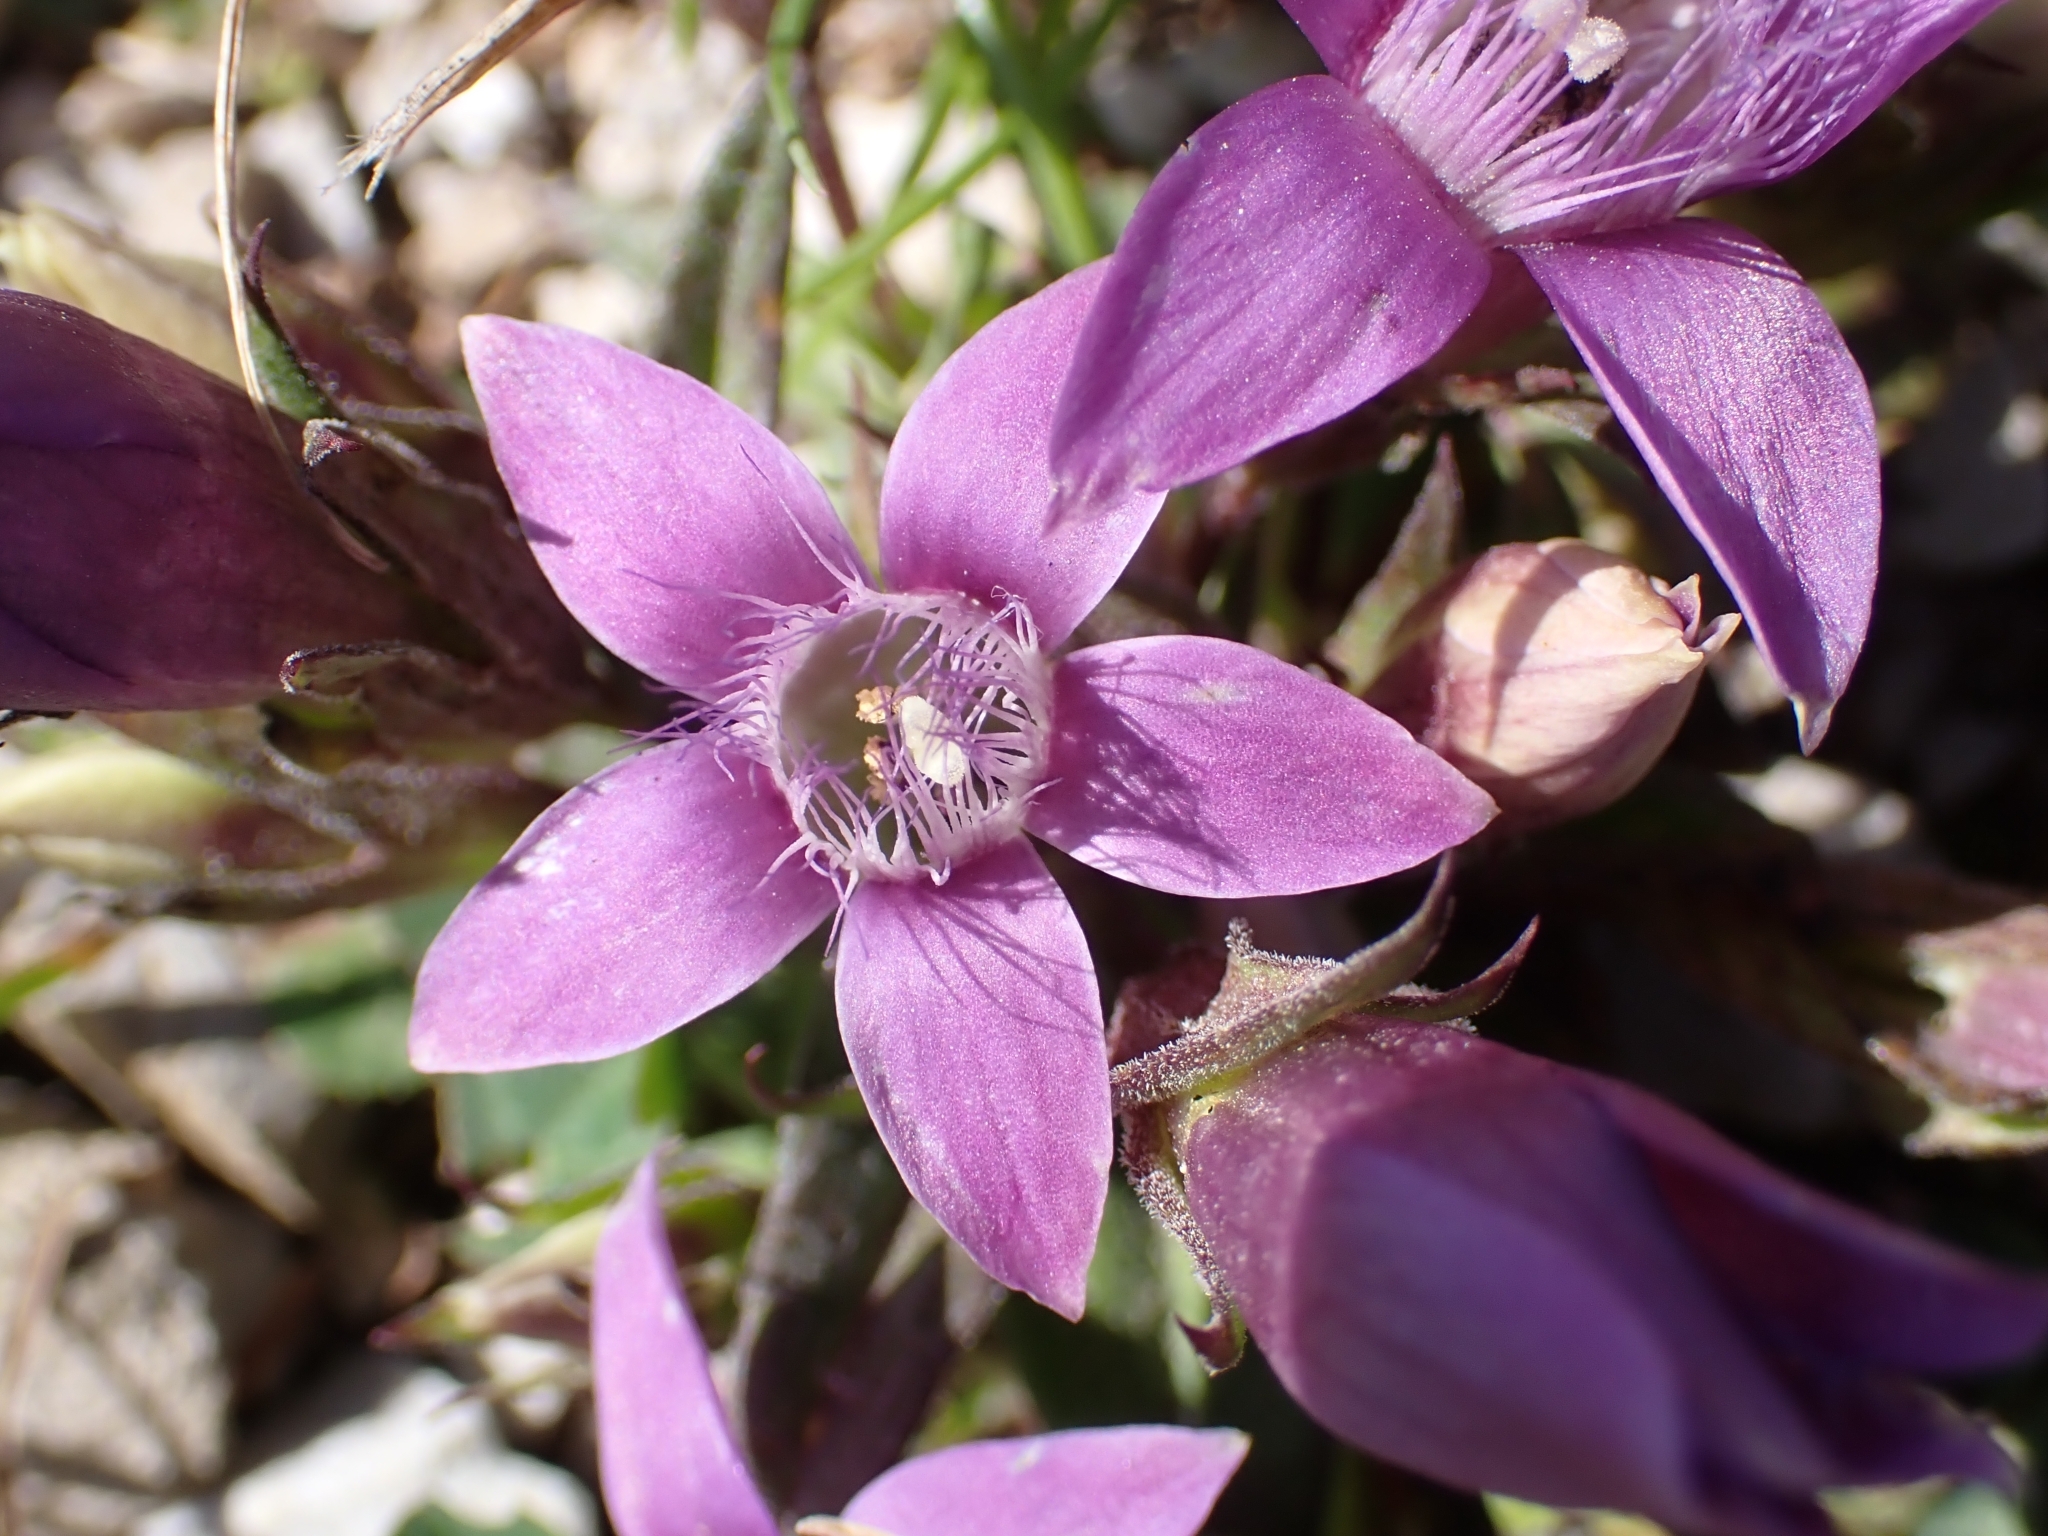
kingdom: Plantae
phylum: Tracheophyta
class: Magnoliopsida
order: Gentianales
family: Gentianaceae
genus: Gentianella
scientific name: Gentianella obtusifolia
